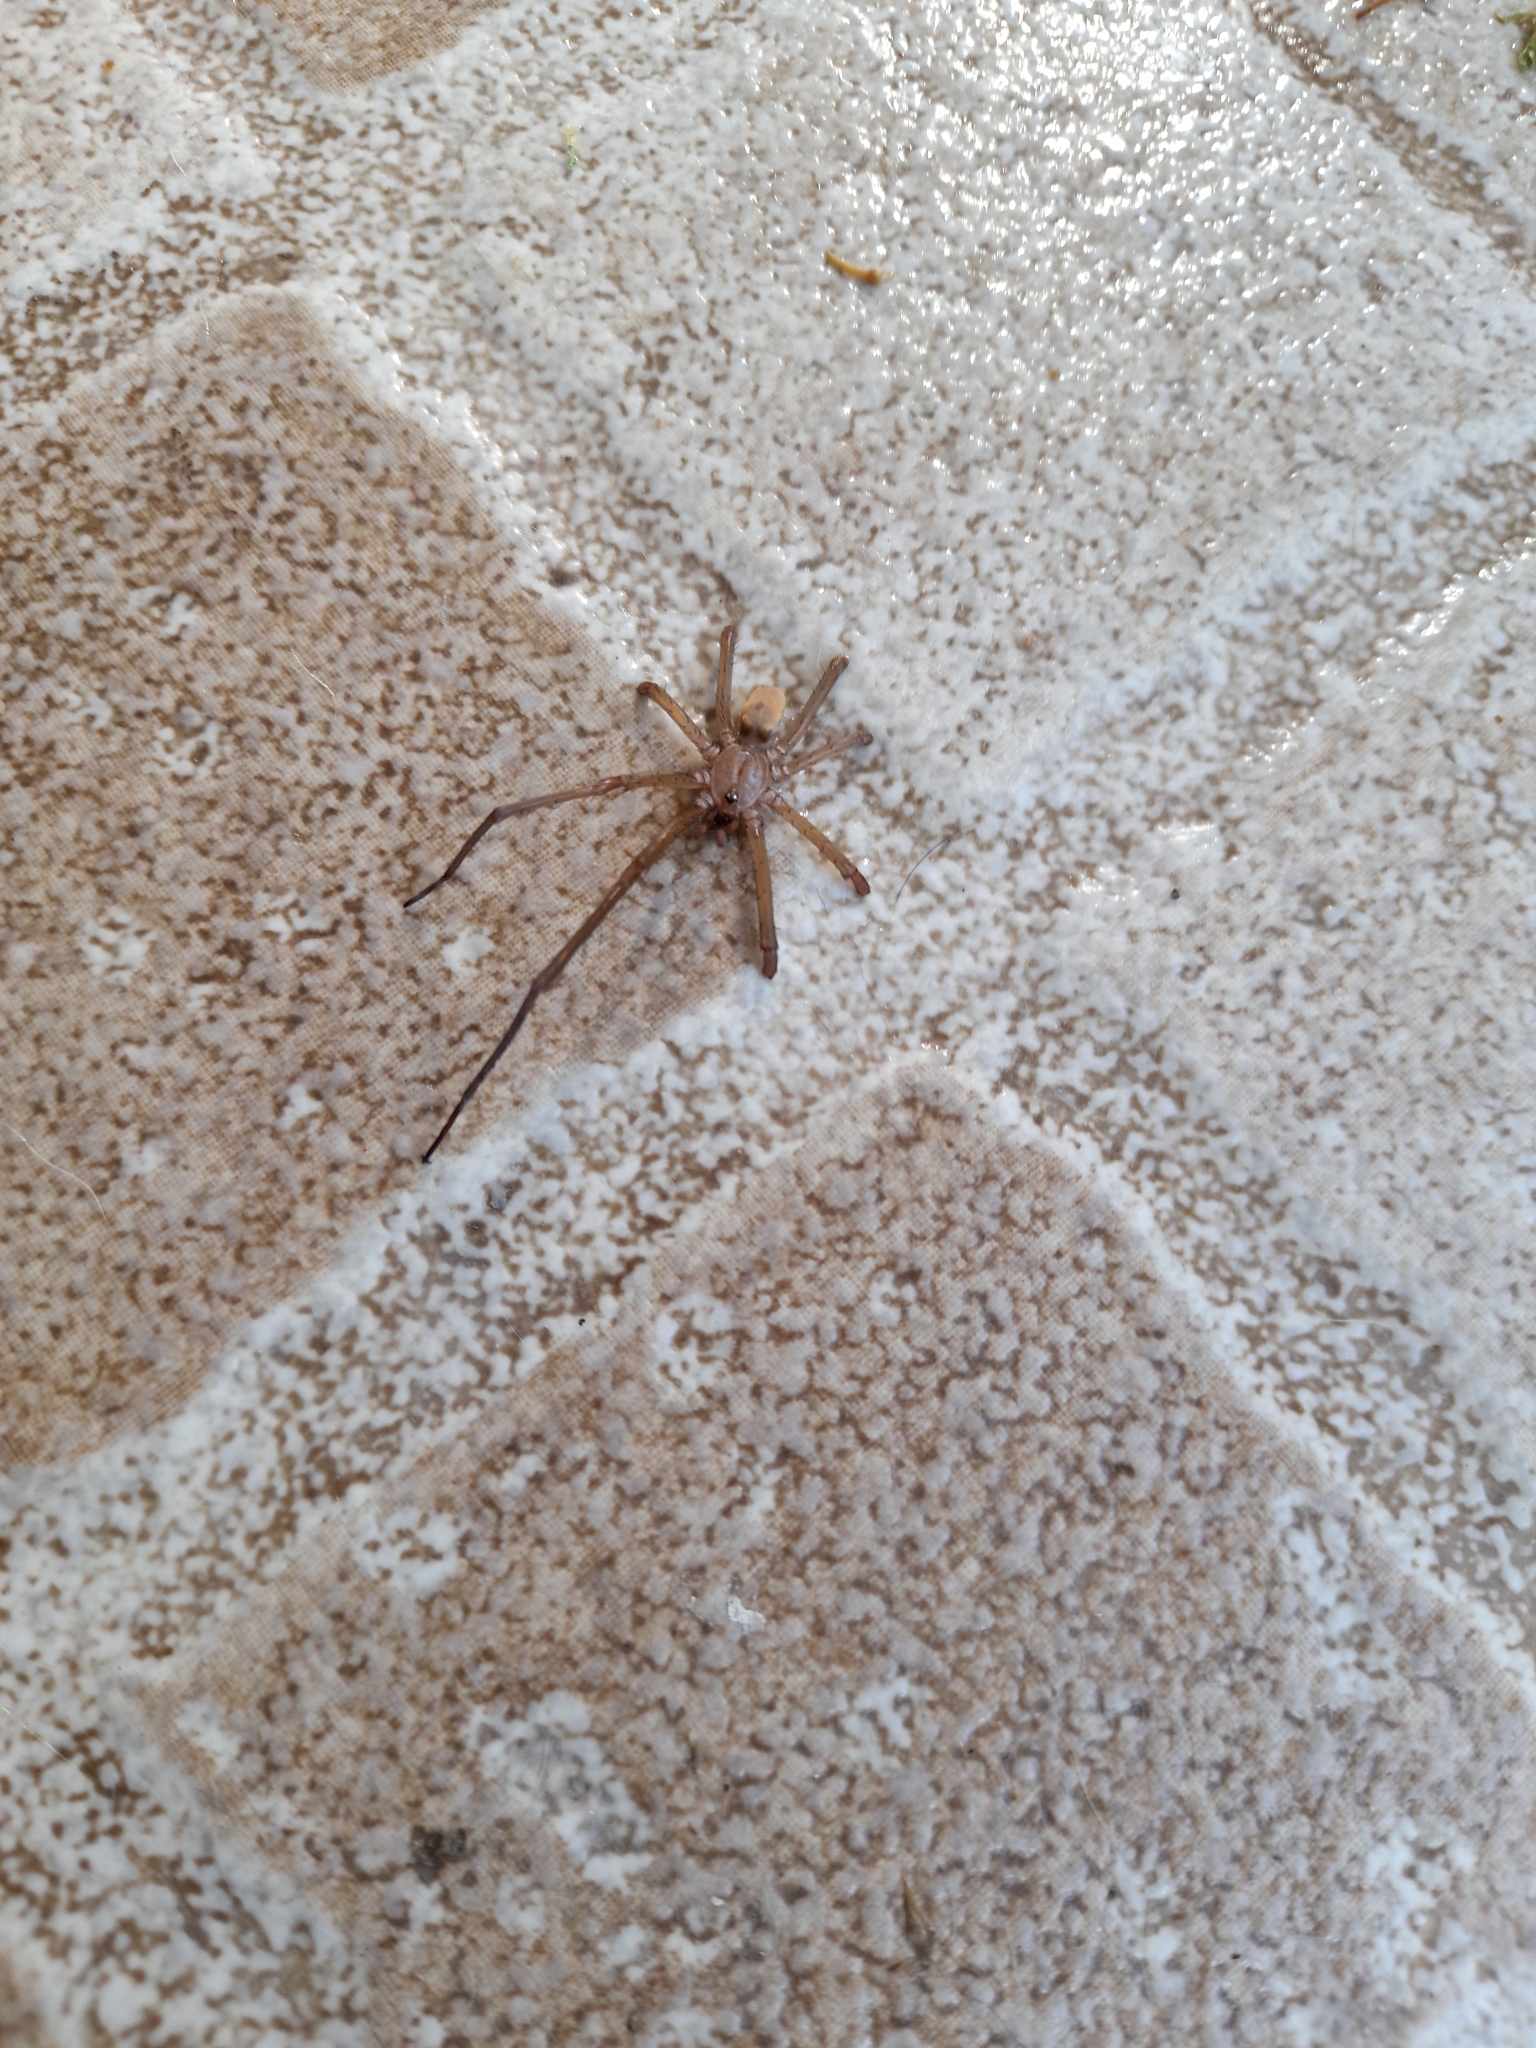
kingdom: Animalia
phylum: Arthropoda
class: Arachnida
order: Araneae
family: Filistatidae
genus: Kukulcania
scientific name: Kukulcania hibernalis
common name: Crevice weaver
